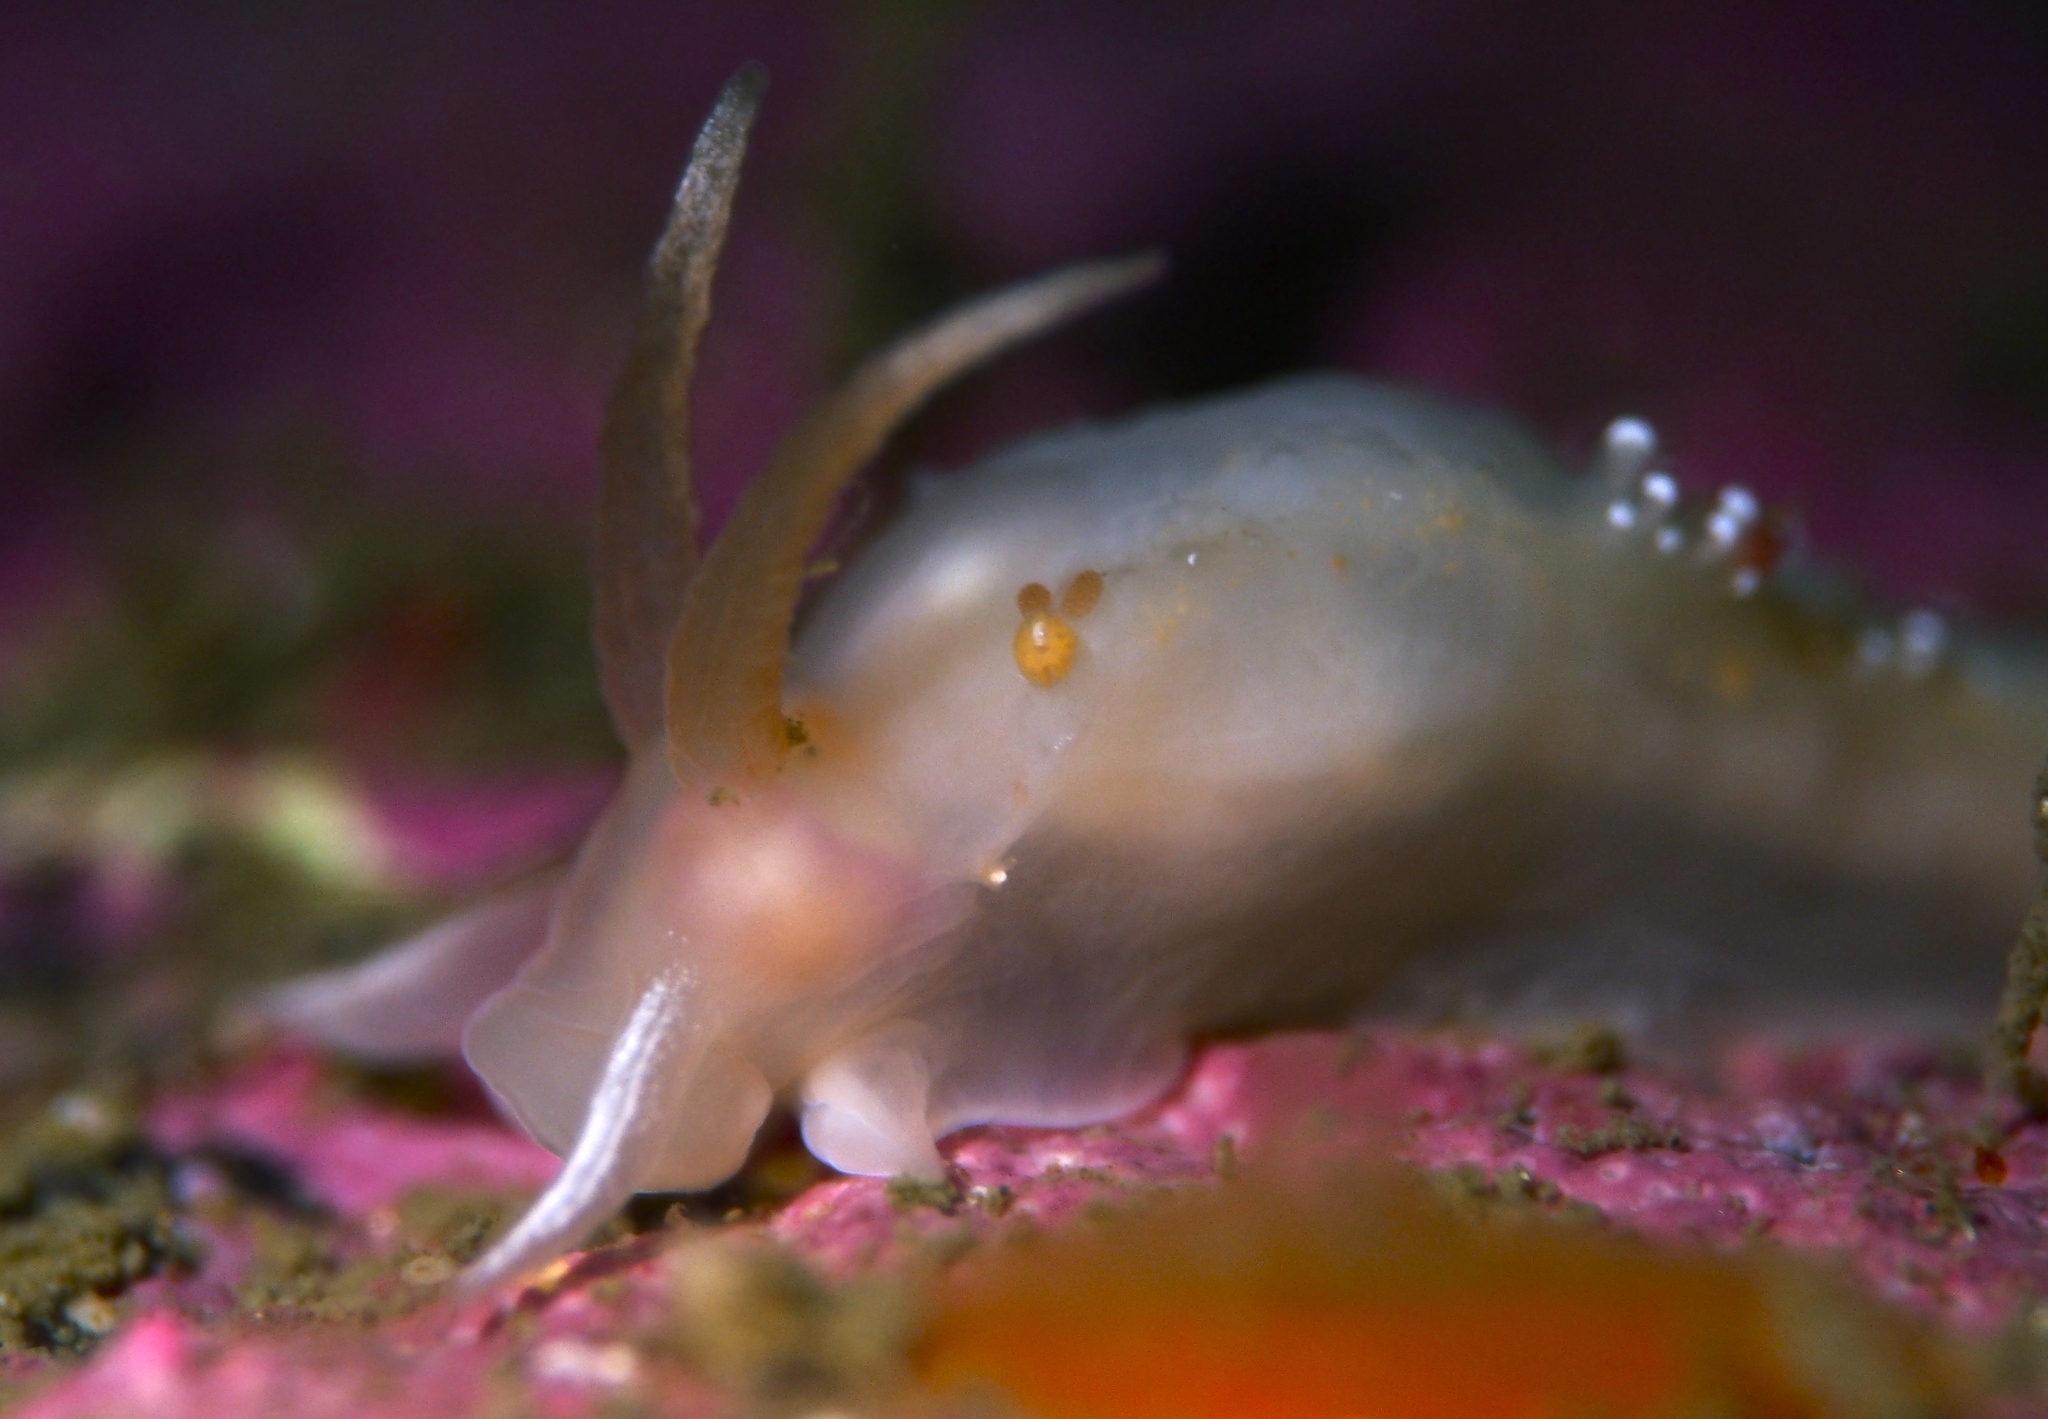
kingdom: Animalia
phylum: Mollusca
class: Gastropoda
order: Nudibranchia
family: Coryphellidae
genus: Coryphella
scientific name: Coryphella verrucosa
